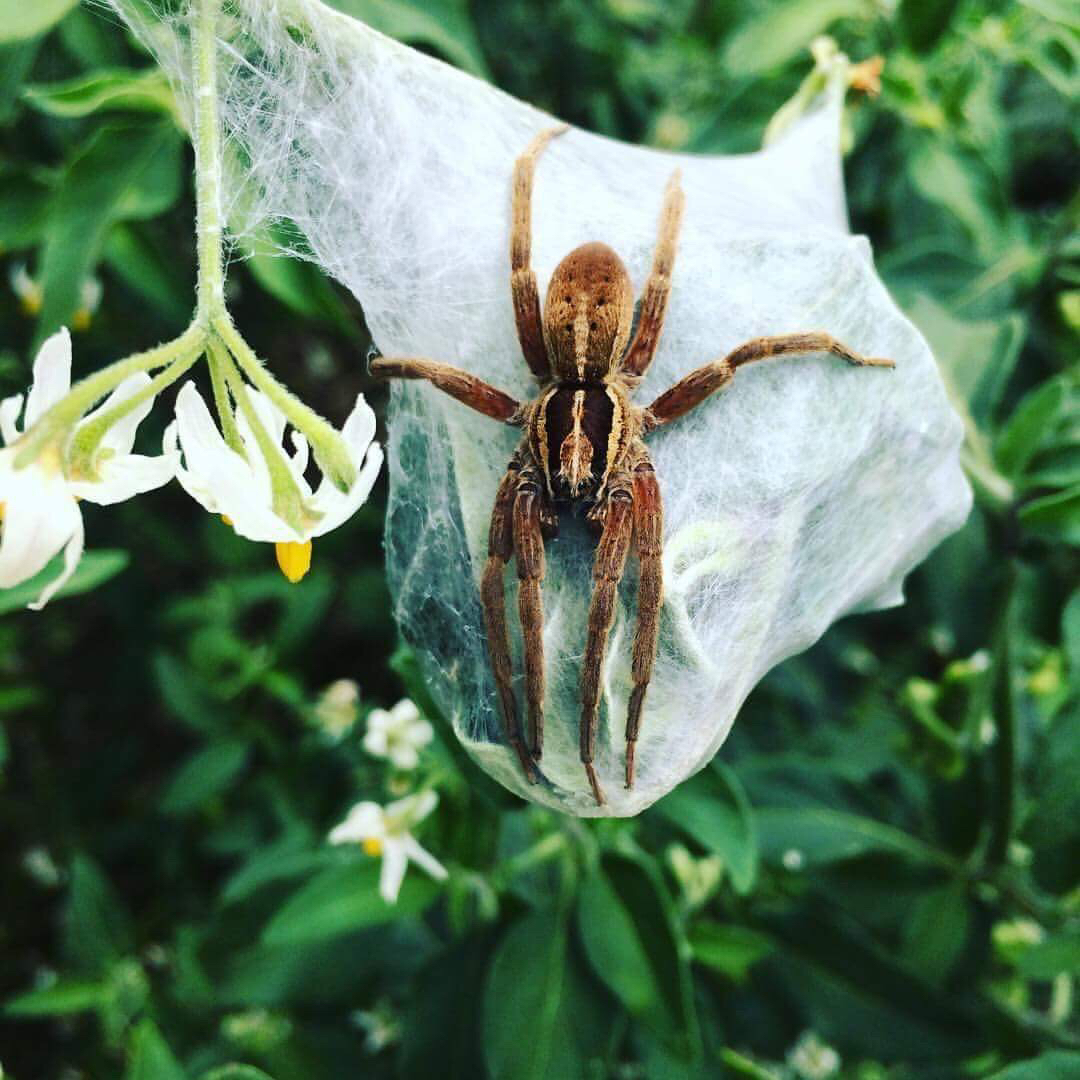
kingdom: Animalia
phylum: Arthropoda
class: Arachnida
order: Araneae
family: Pisauridae
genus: Dolomedes
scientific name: Dolomedes minor
